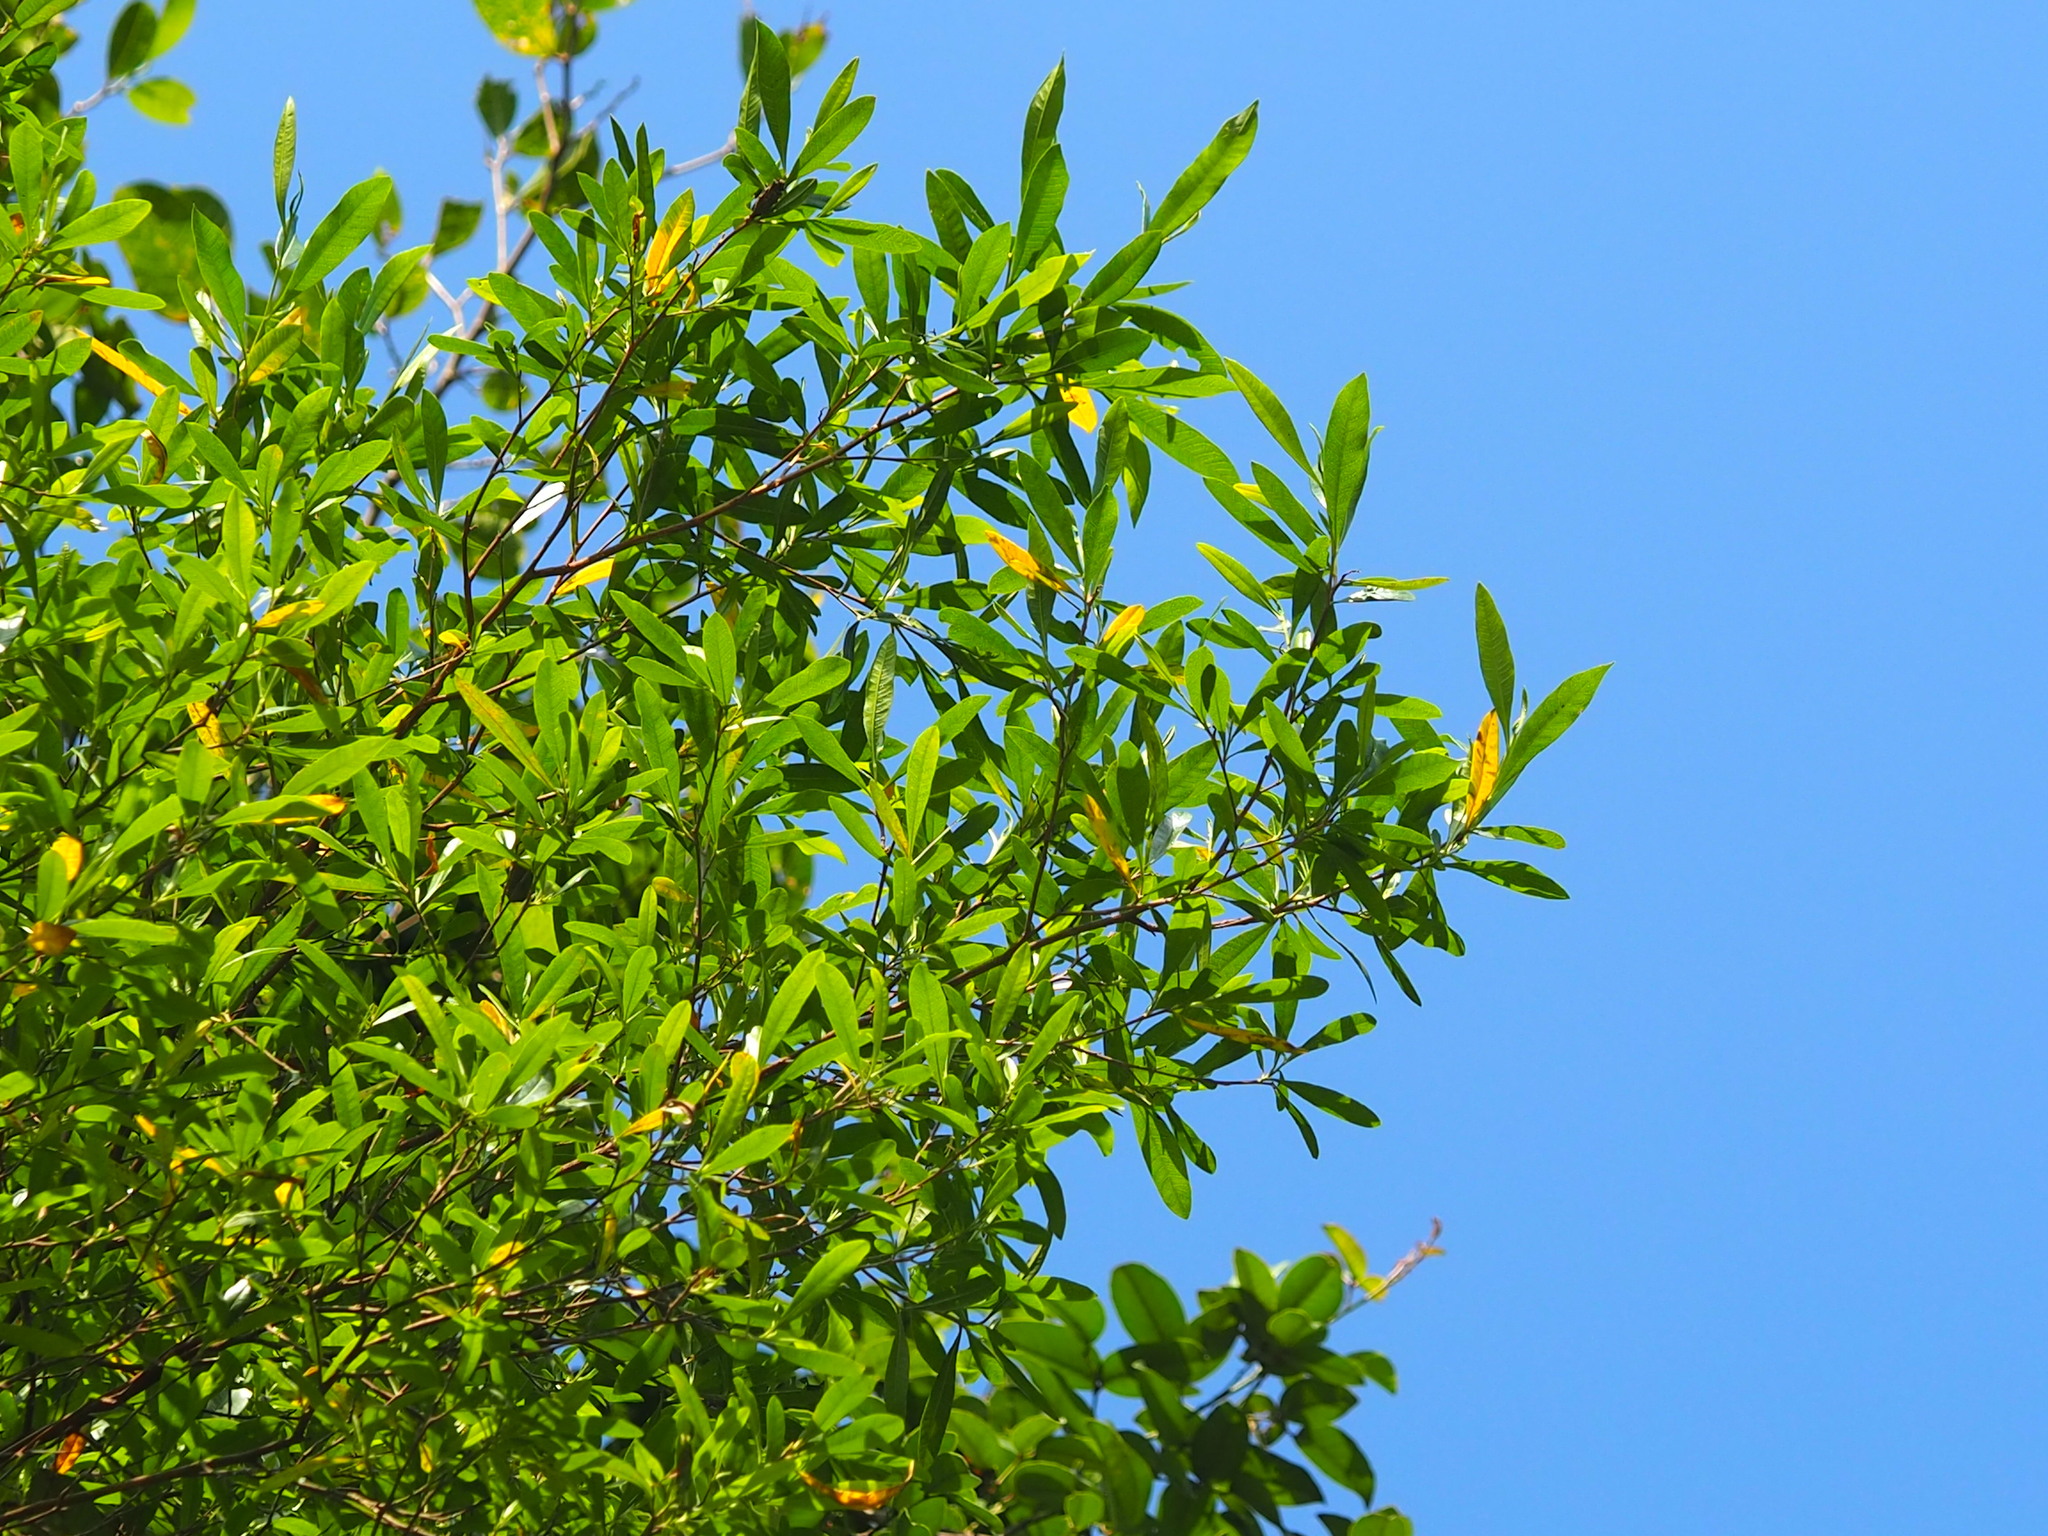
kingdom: Plantae
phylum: Tracheophyta
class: Magnoliopsida
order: Sapindales
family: Sapindaceae
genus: Dodonaea
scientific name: Dodonaea viscosa
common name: Hopbush
